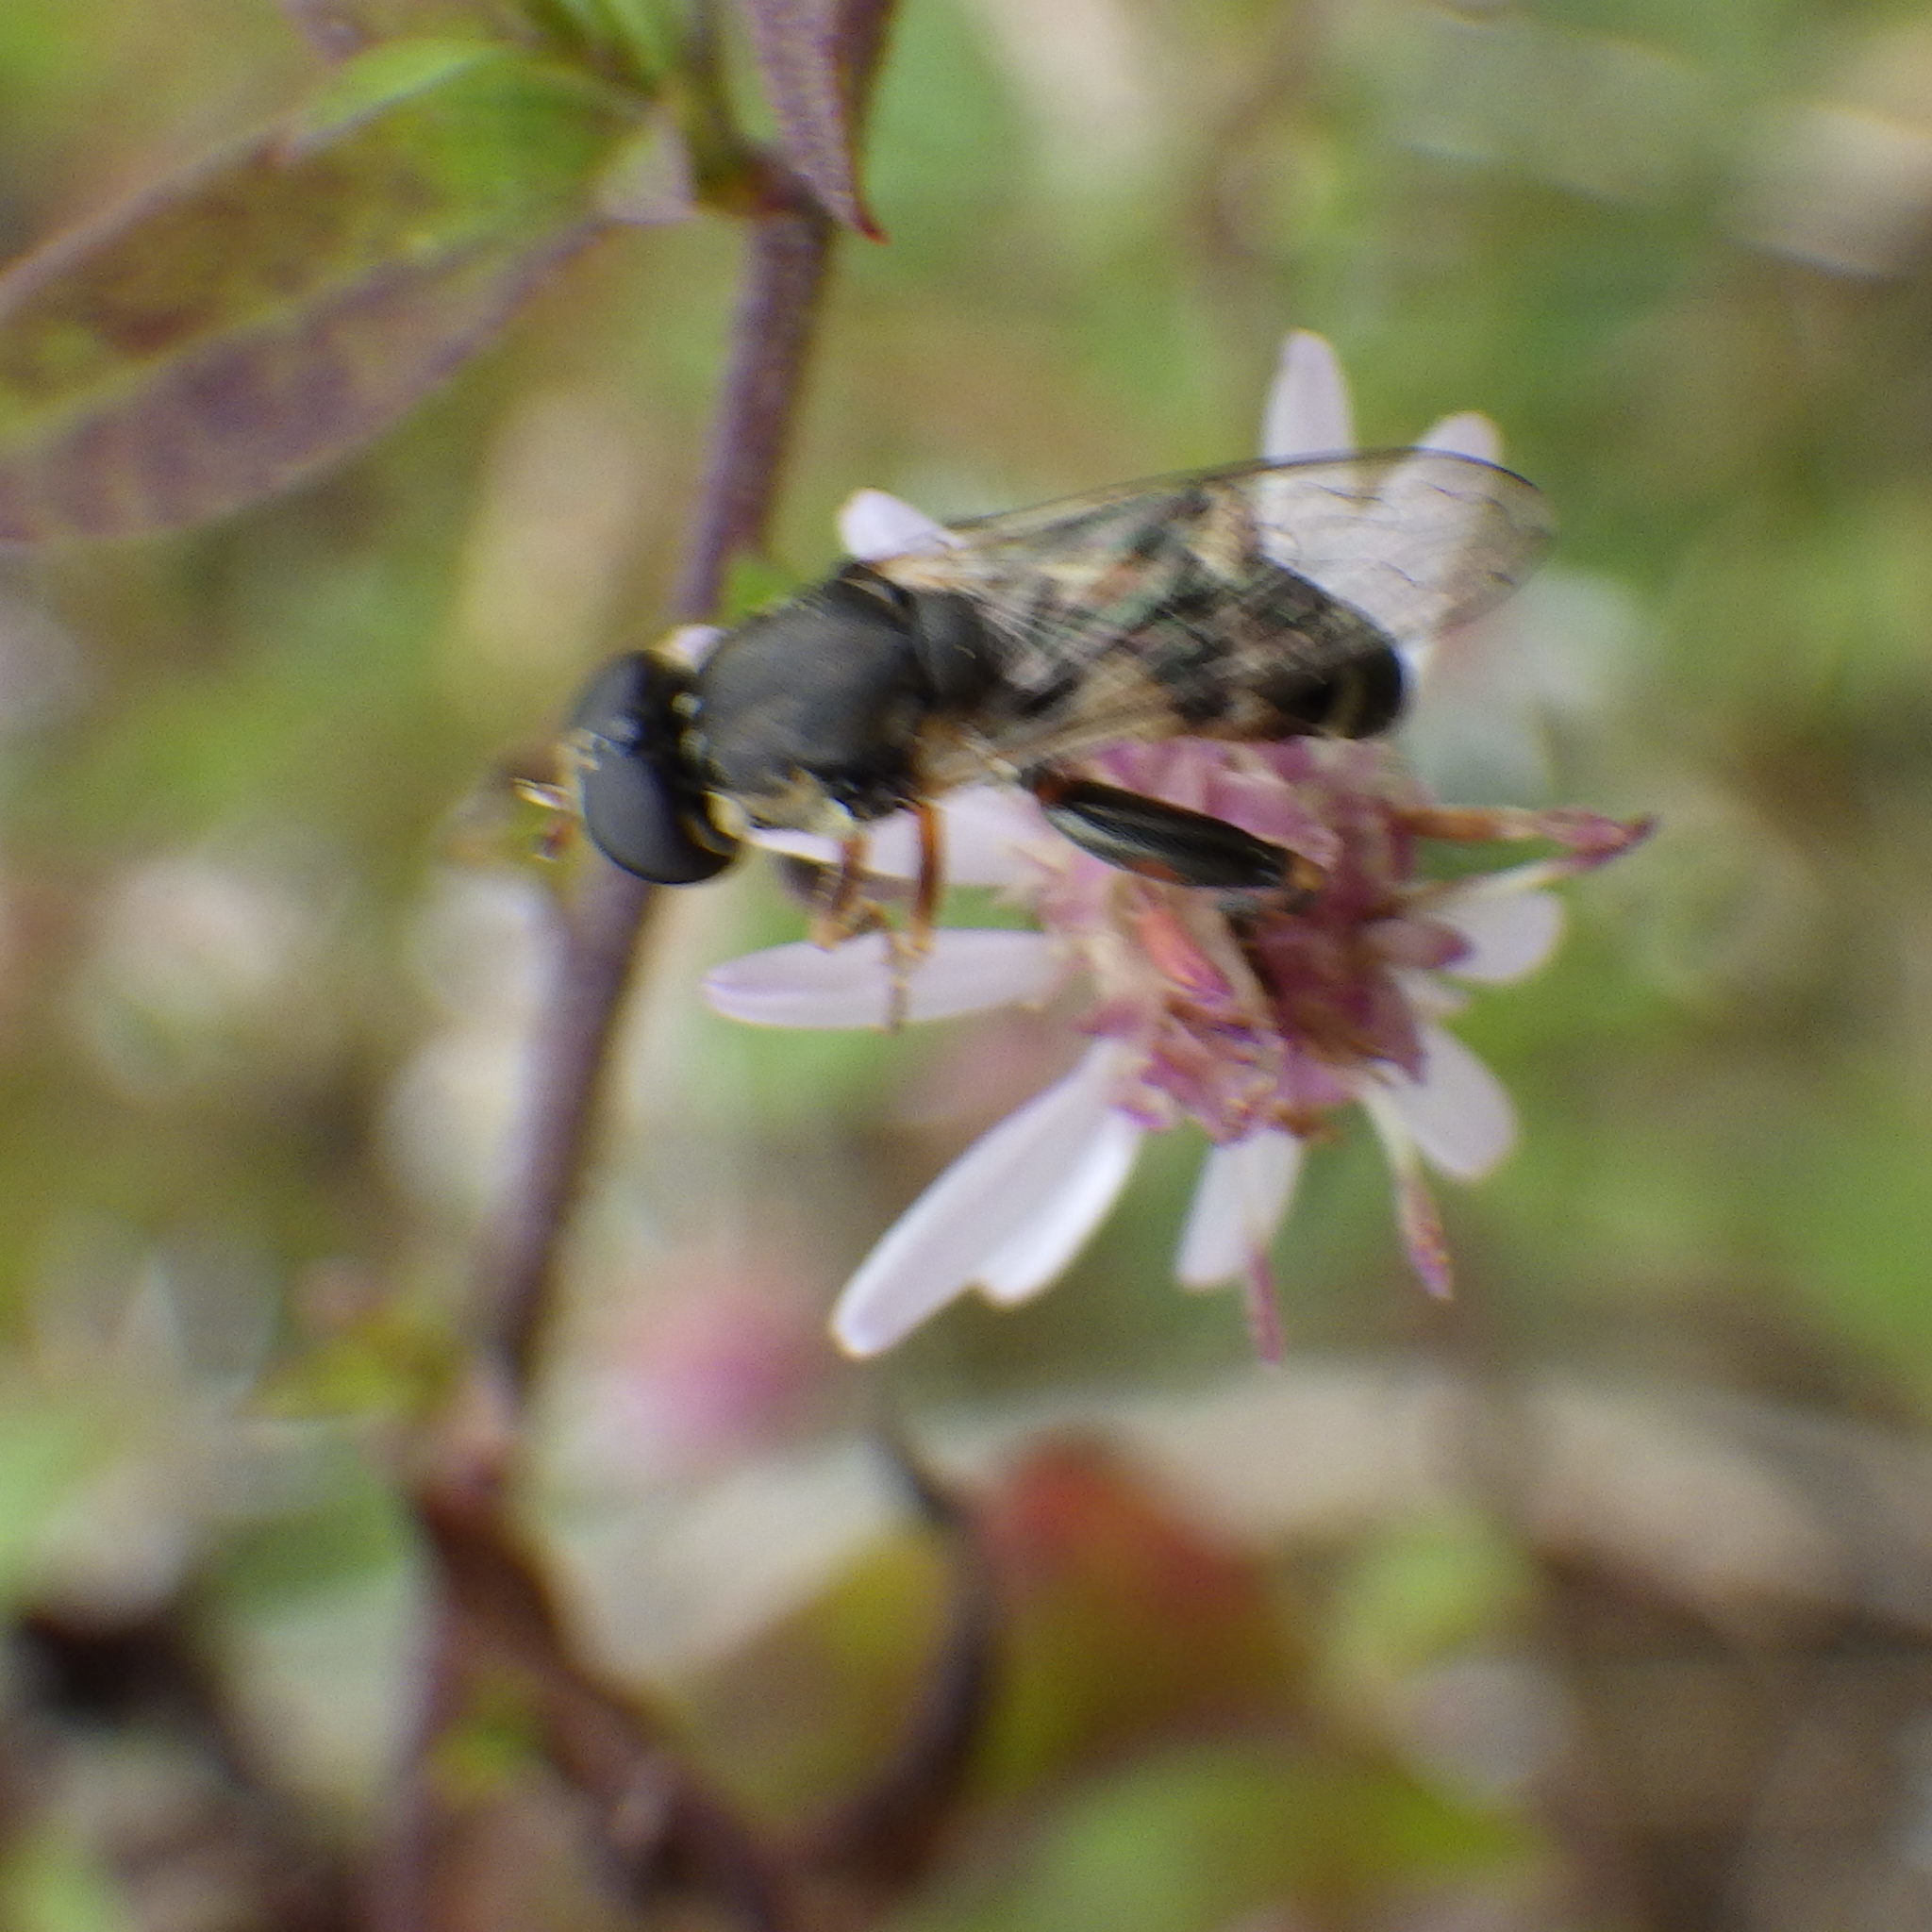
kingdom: Animalia
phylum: Arthropoda
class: Insecta
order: Diptera
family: Syrphidae
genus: Syritta
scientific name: Syritta pipiens
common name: Hover fly
